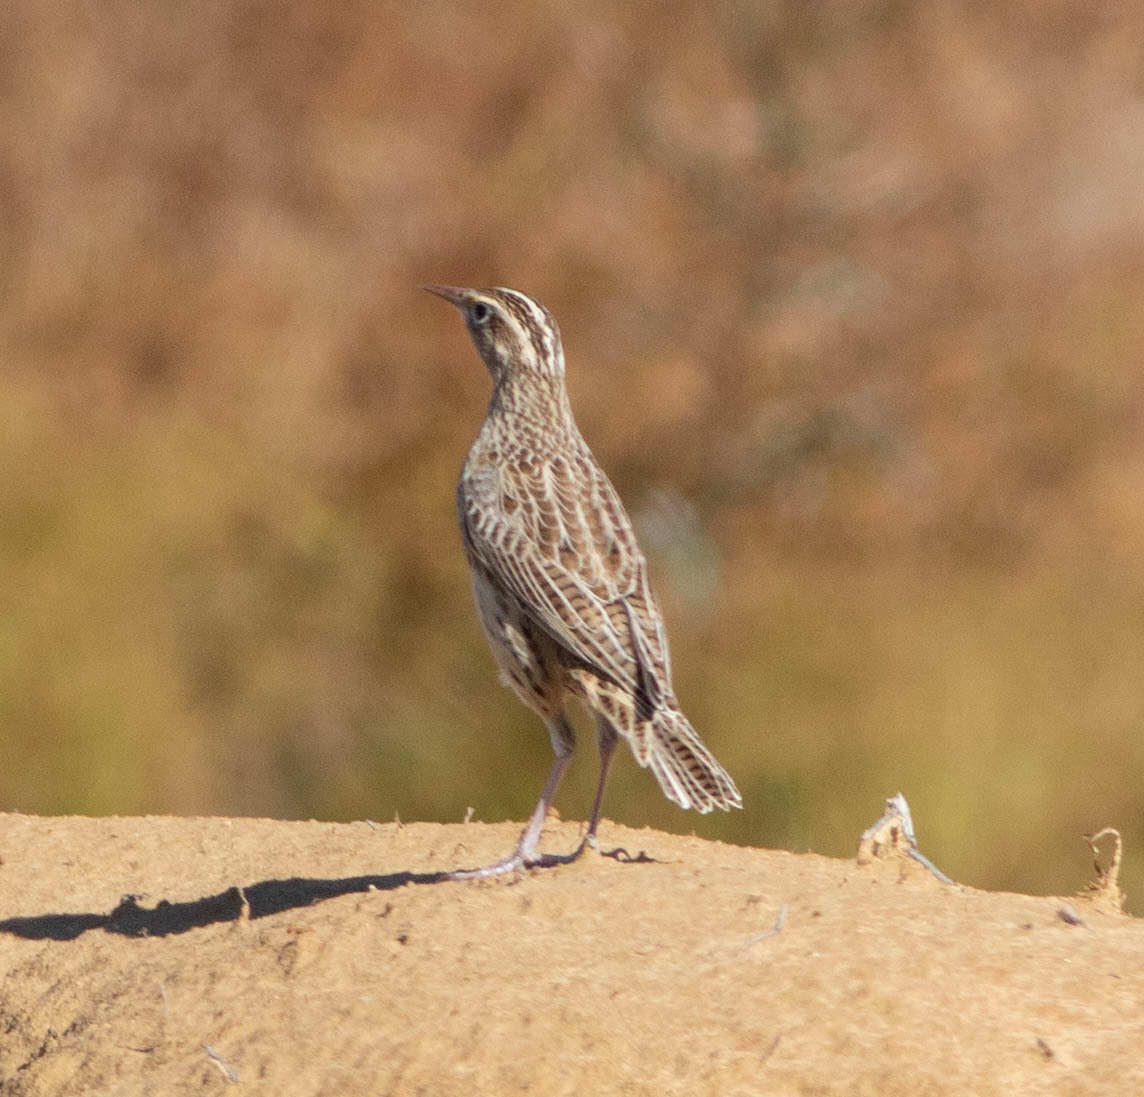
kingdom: Animalia
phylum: Chordata
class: Aves
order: Passeriformes
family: Icteridae
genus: Sturnella
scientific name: Sturnella neglecta
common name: Western meadowlark
